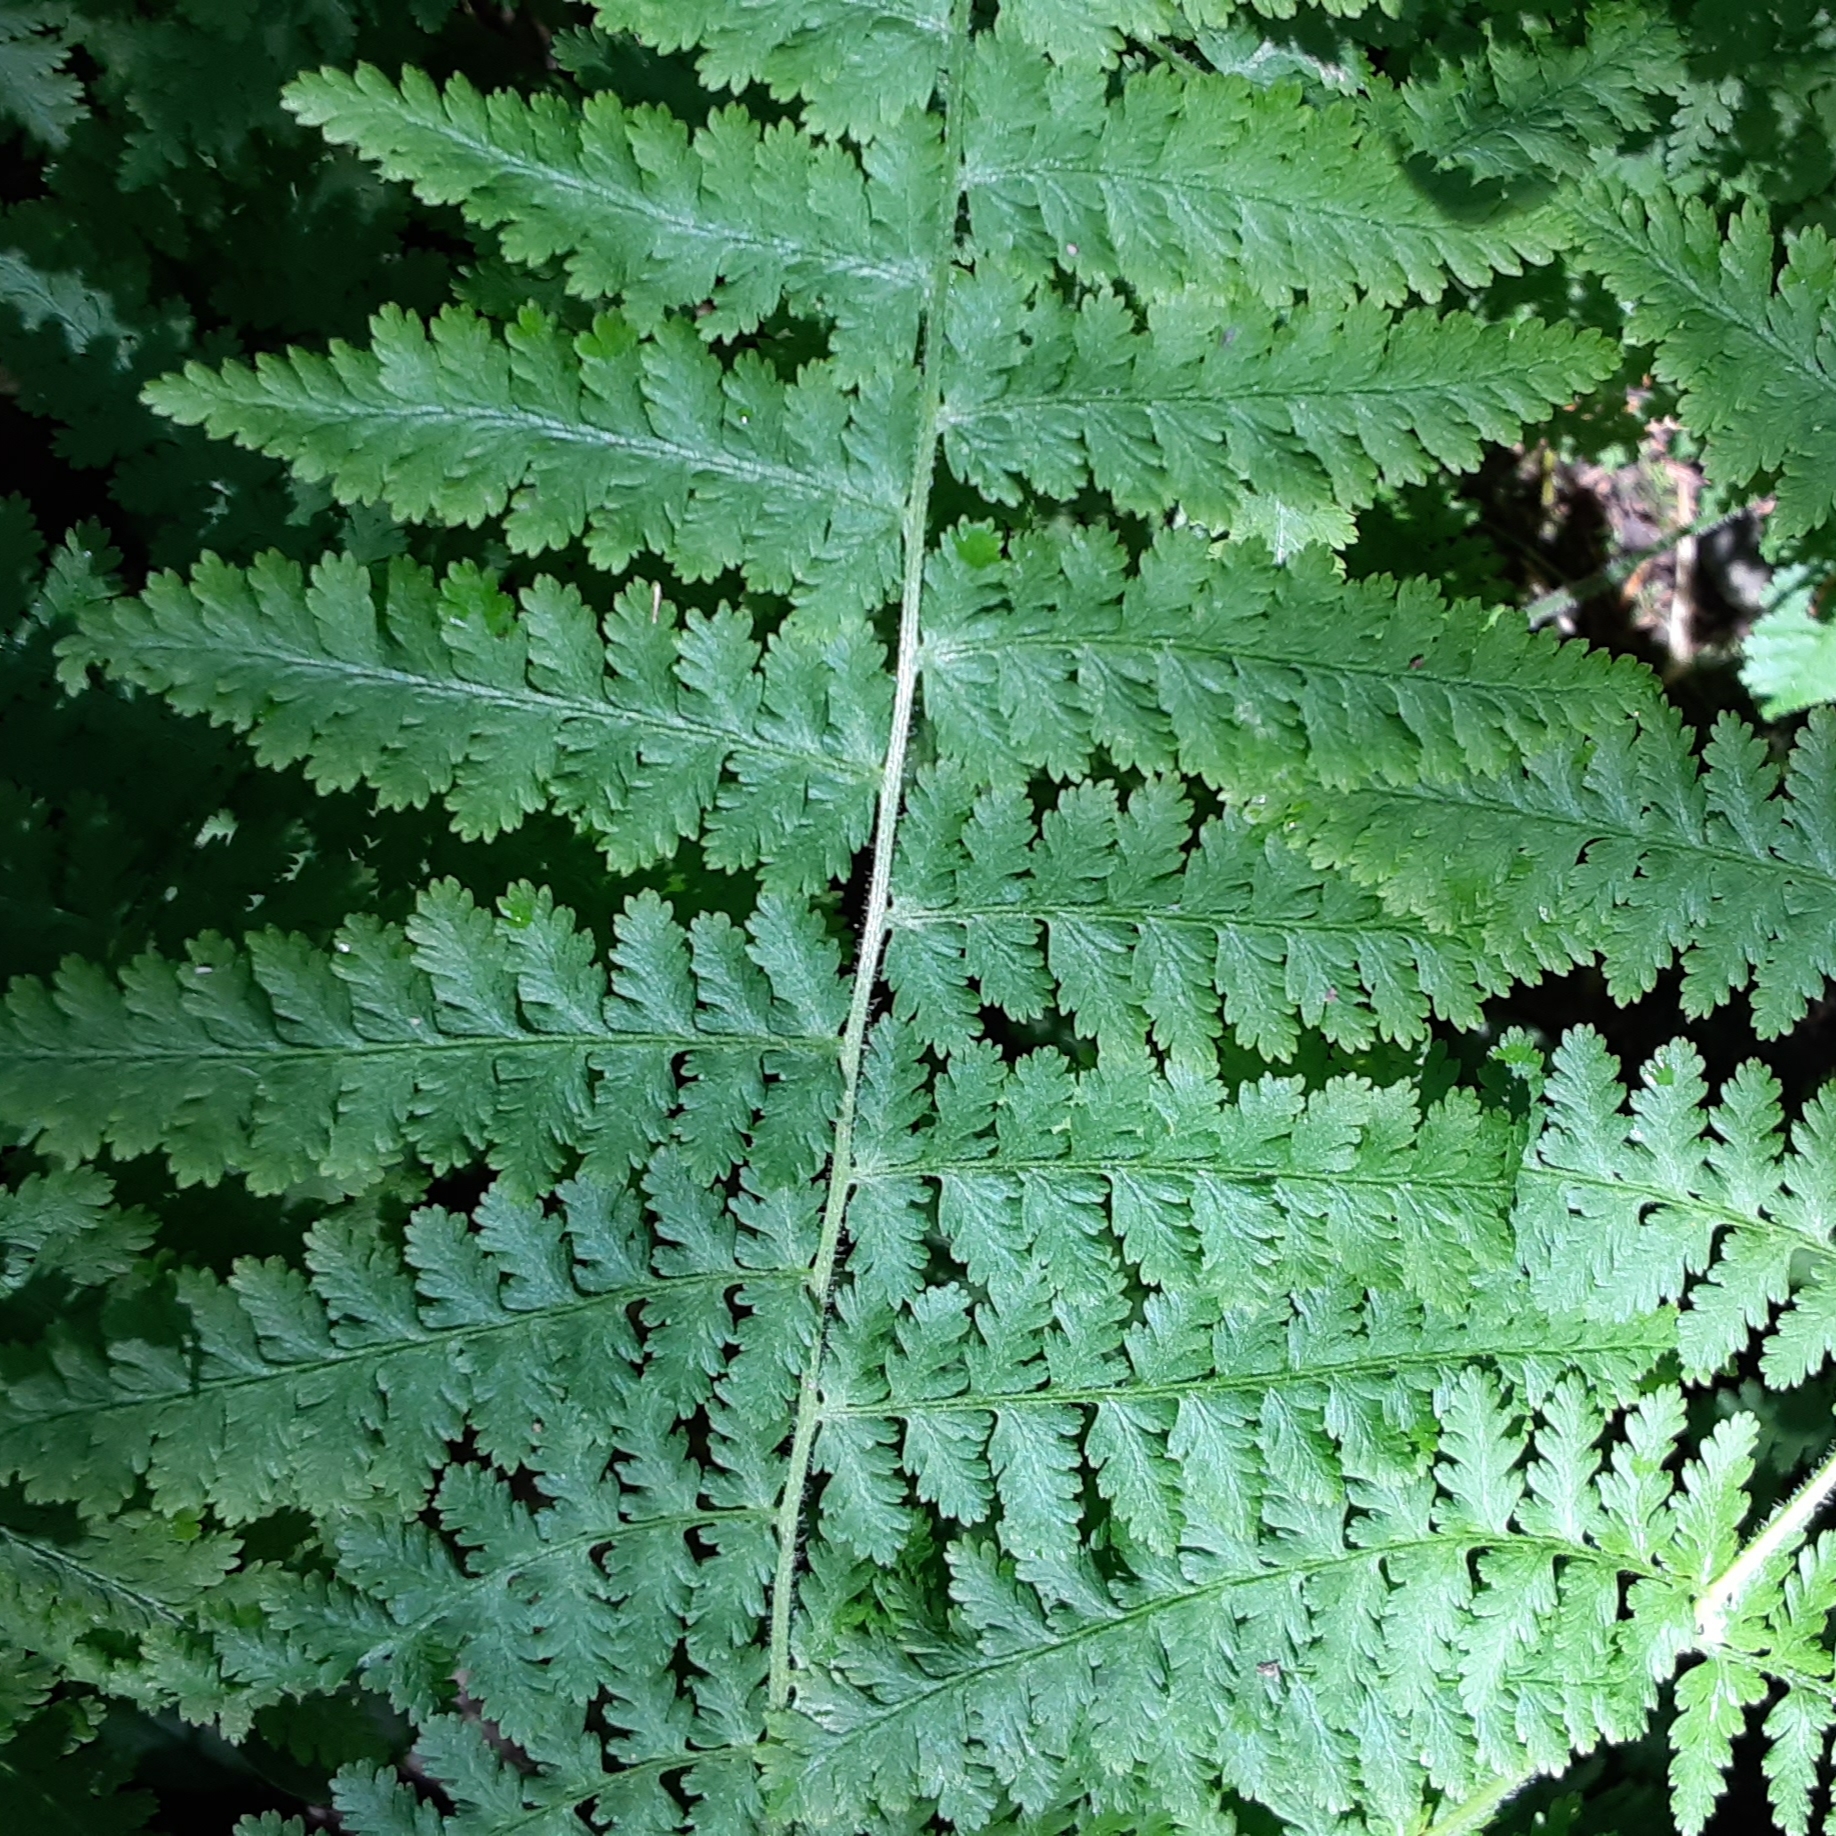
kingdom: Plantae
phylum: Tracheophyta
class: Polypodiopsida
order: Polypodiales
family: Dennstaedtiaceae
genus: Sitobolium
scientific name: Sitobolium punctilobum
